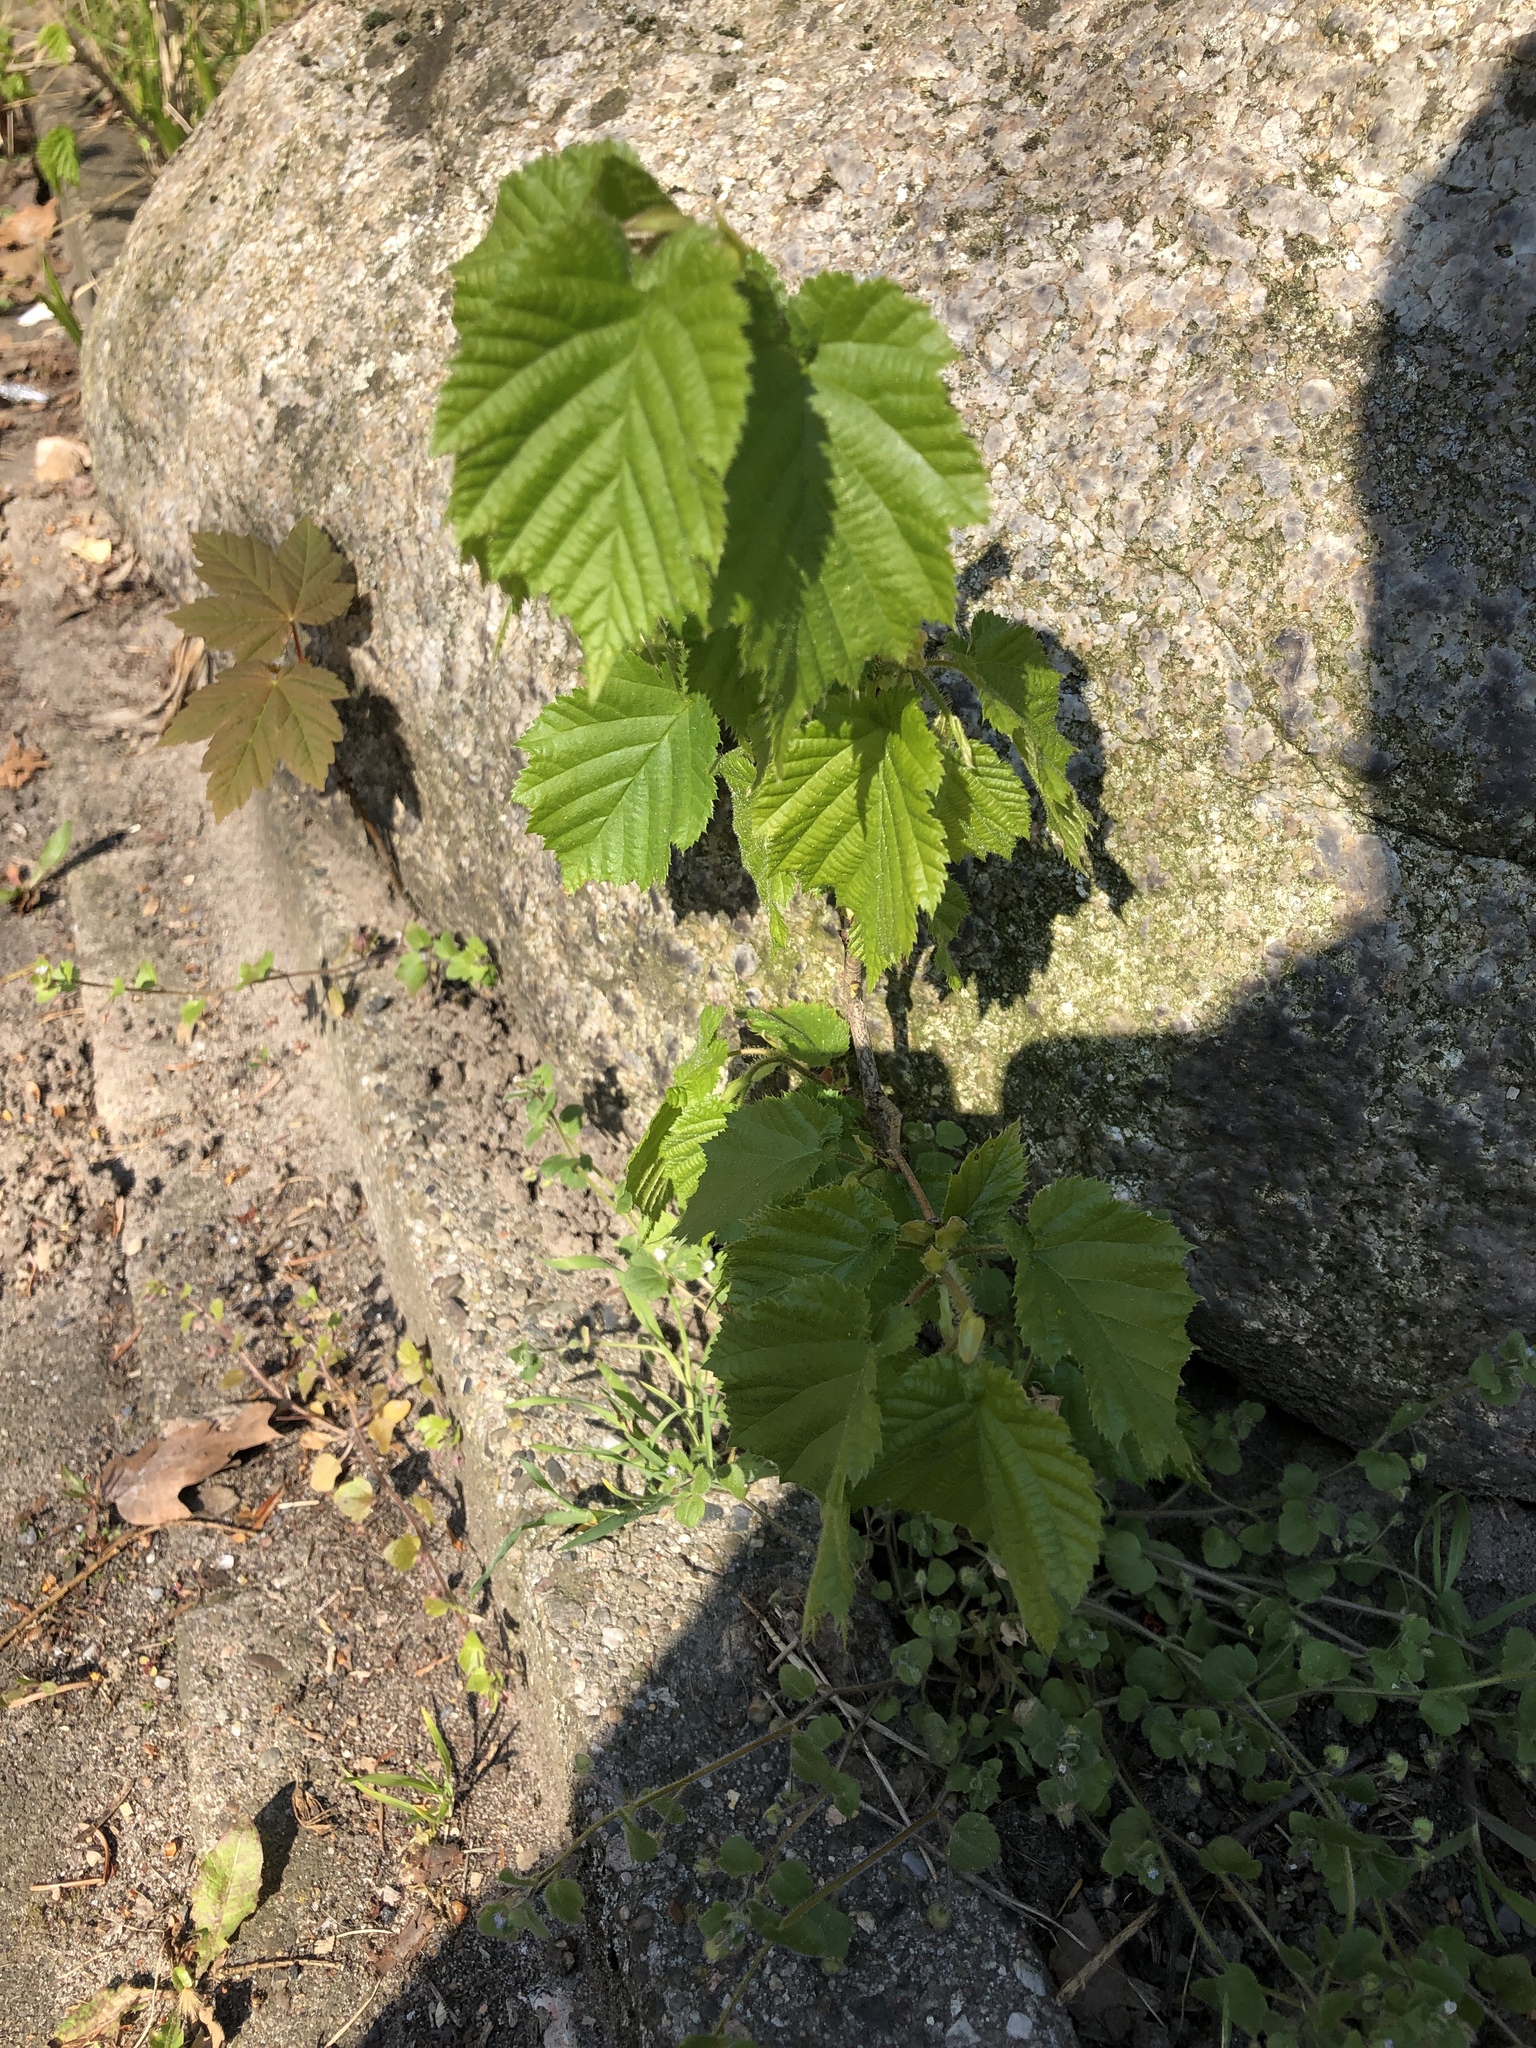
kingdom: Plantae
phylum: Tracheophyta
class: Magnoliopsida
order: Fagales
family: Betulaceae
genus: Corylus
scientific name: Corylus avellana
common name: European hazel
